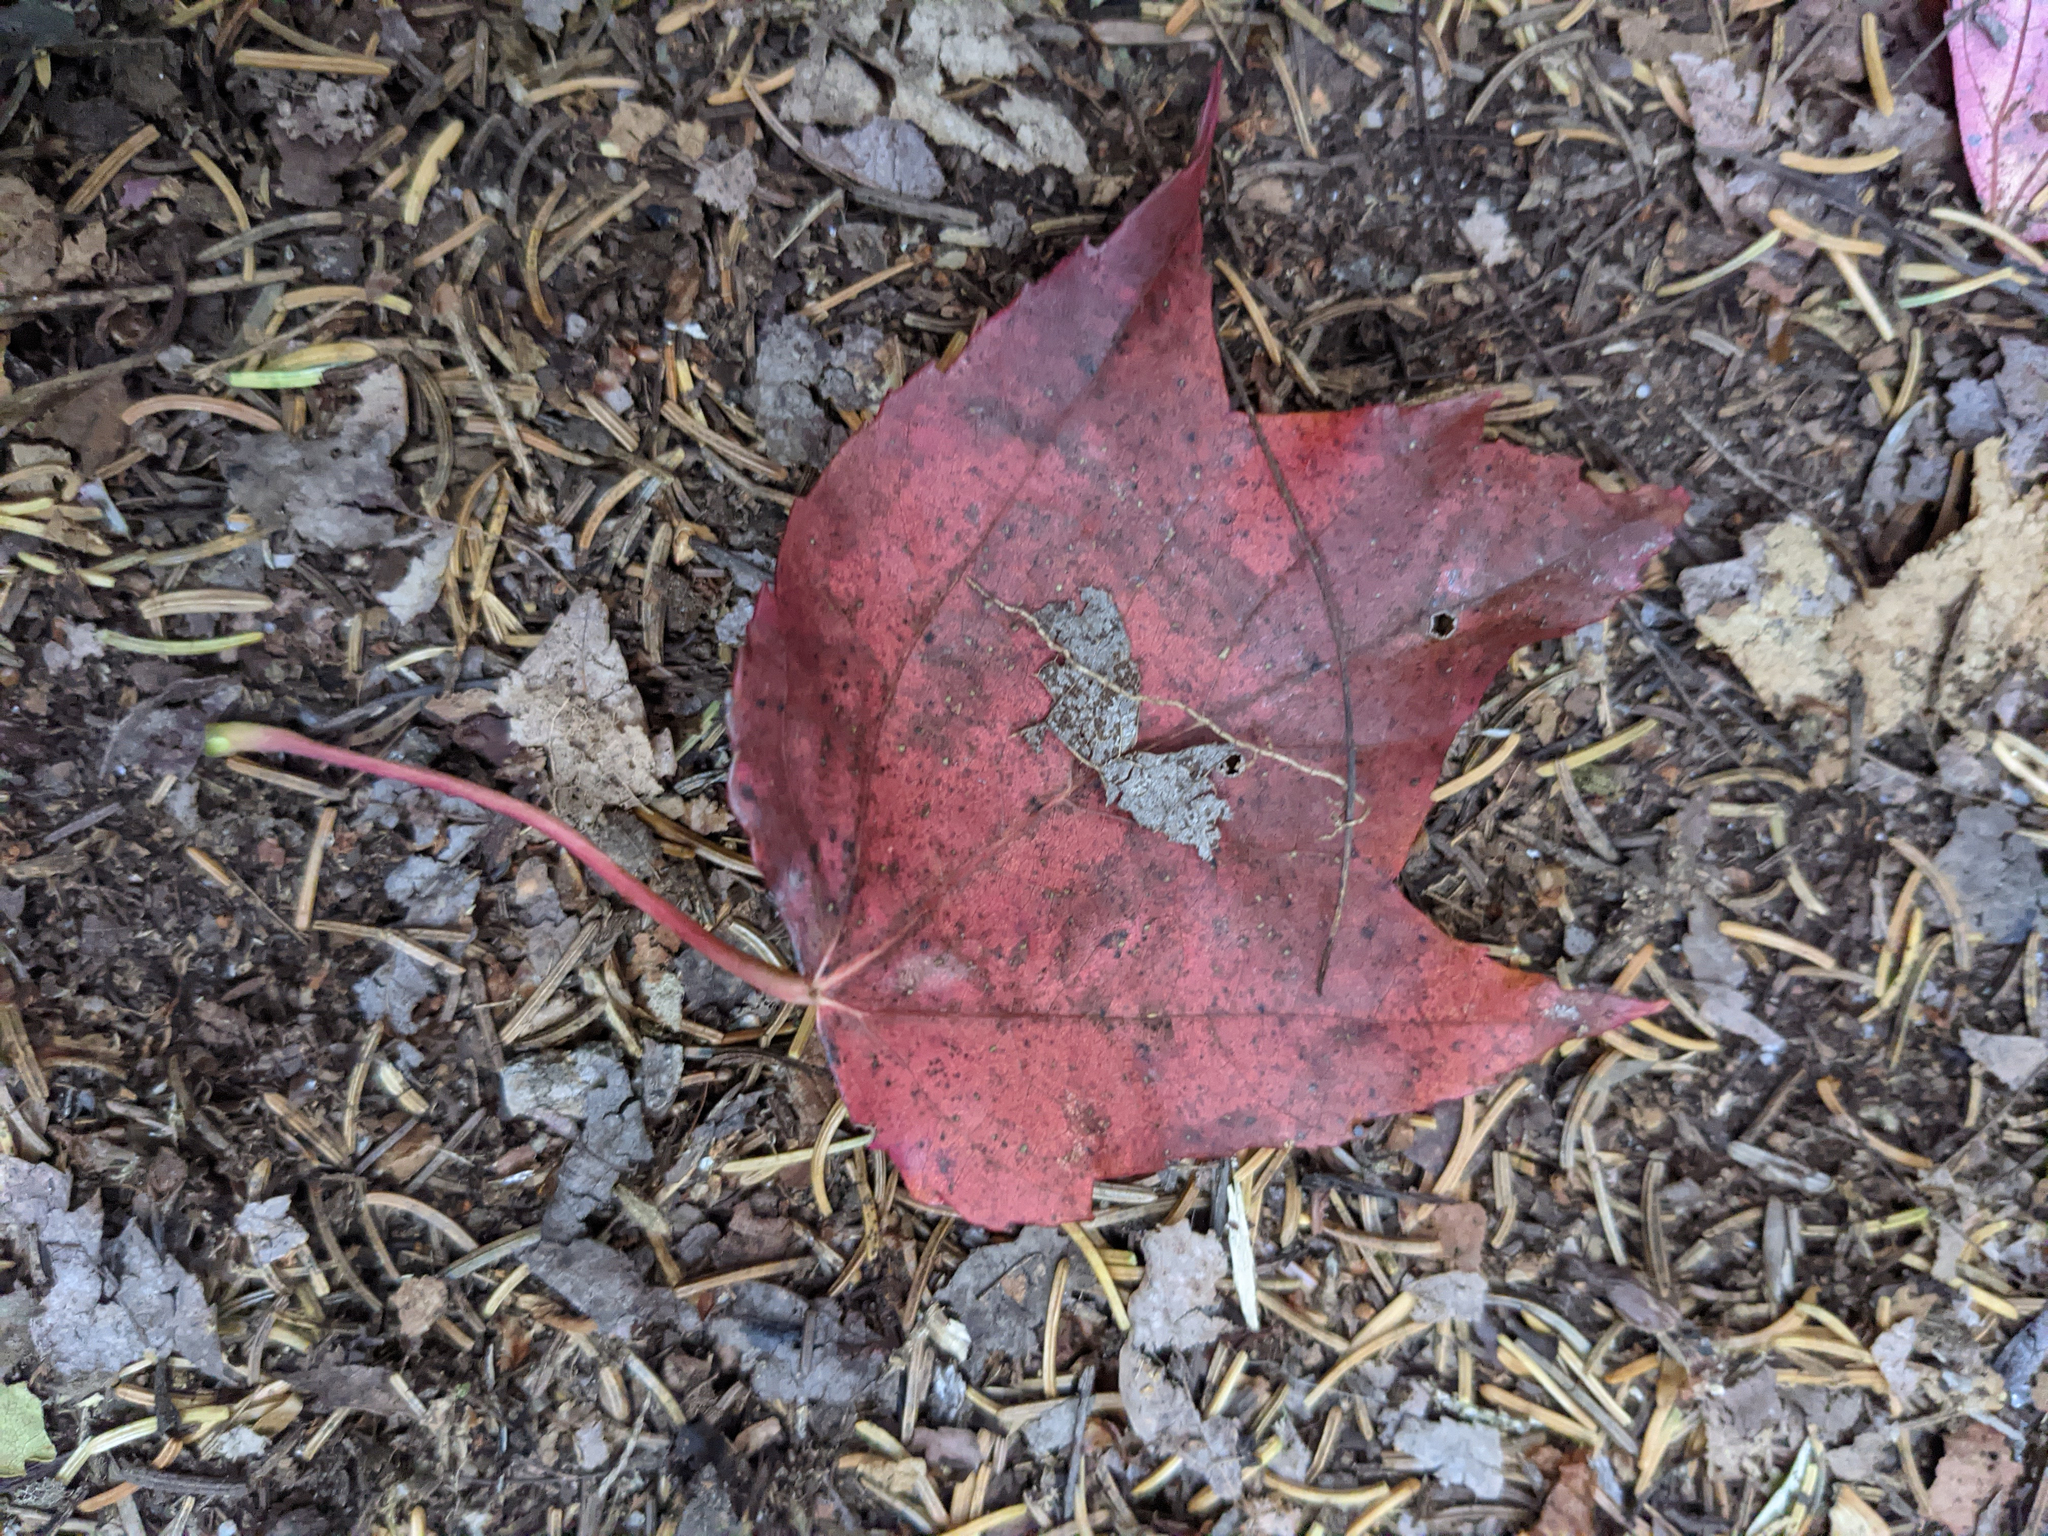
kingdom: Plantae
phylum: Tracheophyta
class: Magnoliopsida
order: Sapindales
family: Sapindaceae
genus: Acer
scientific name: Acer rubrum
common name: Red maple
